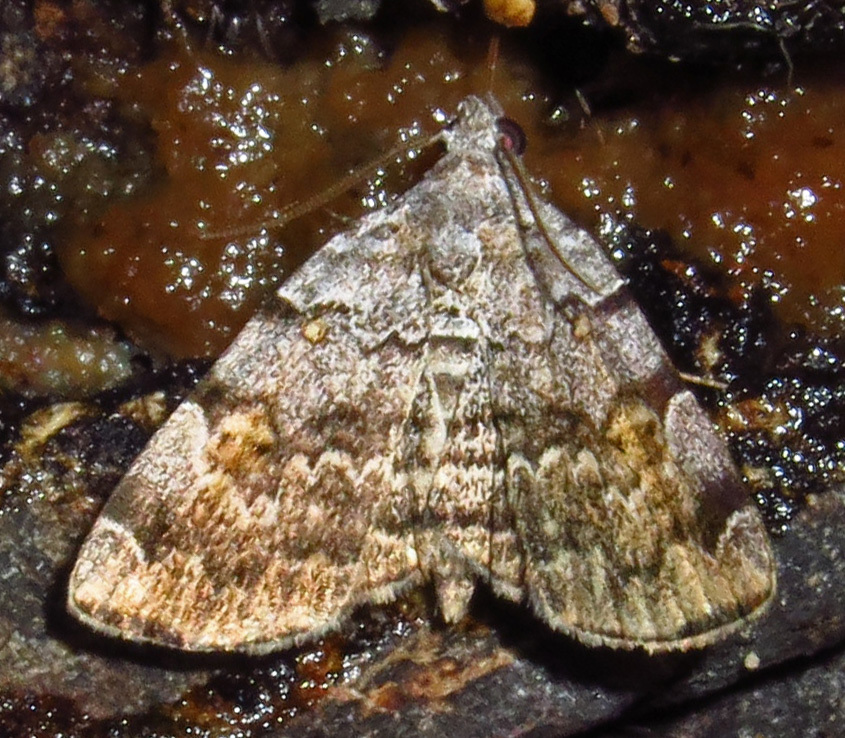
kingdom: Animalia
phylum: Arthropoda
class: Insecta
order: Lepidoptera
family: Erebidae
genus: Idia
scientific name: Idia americalis
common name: American idia moth
